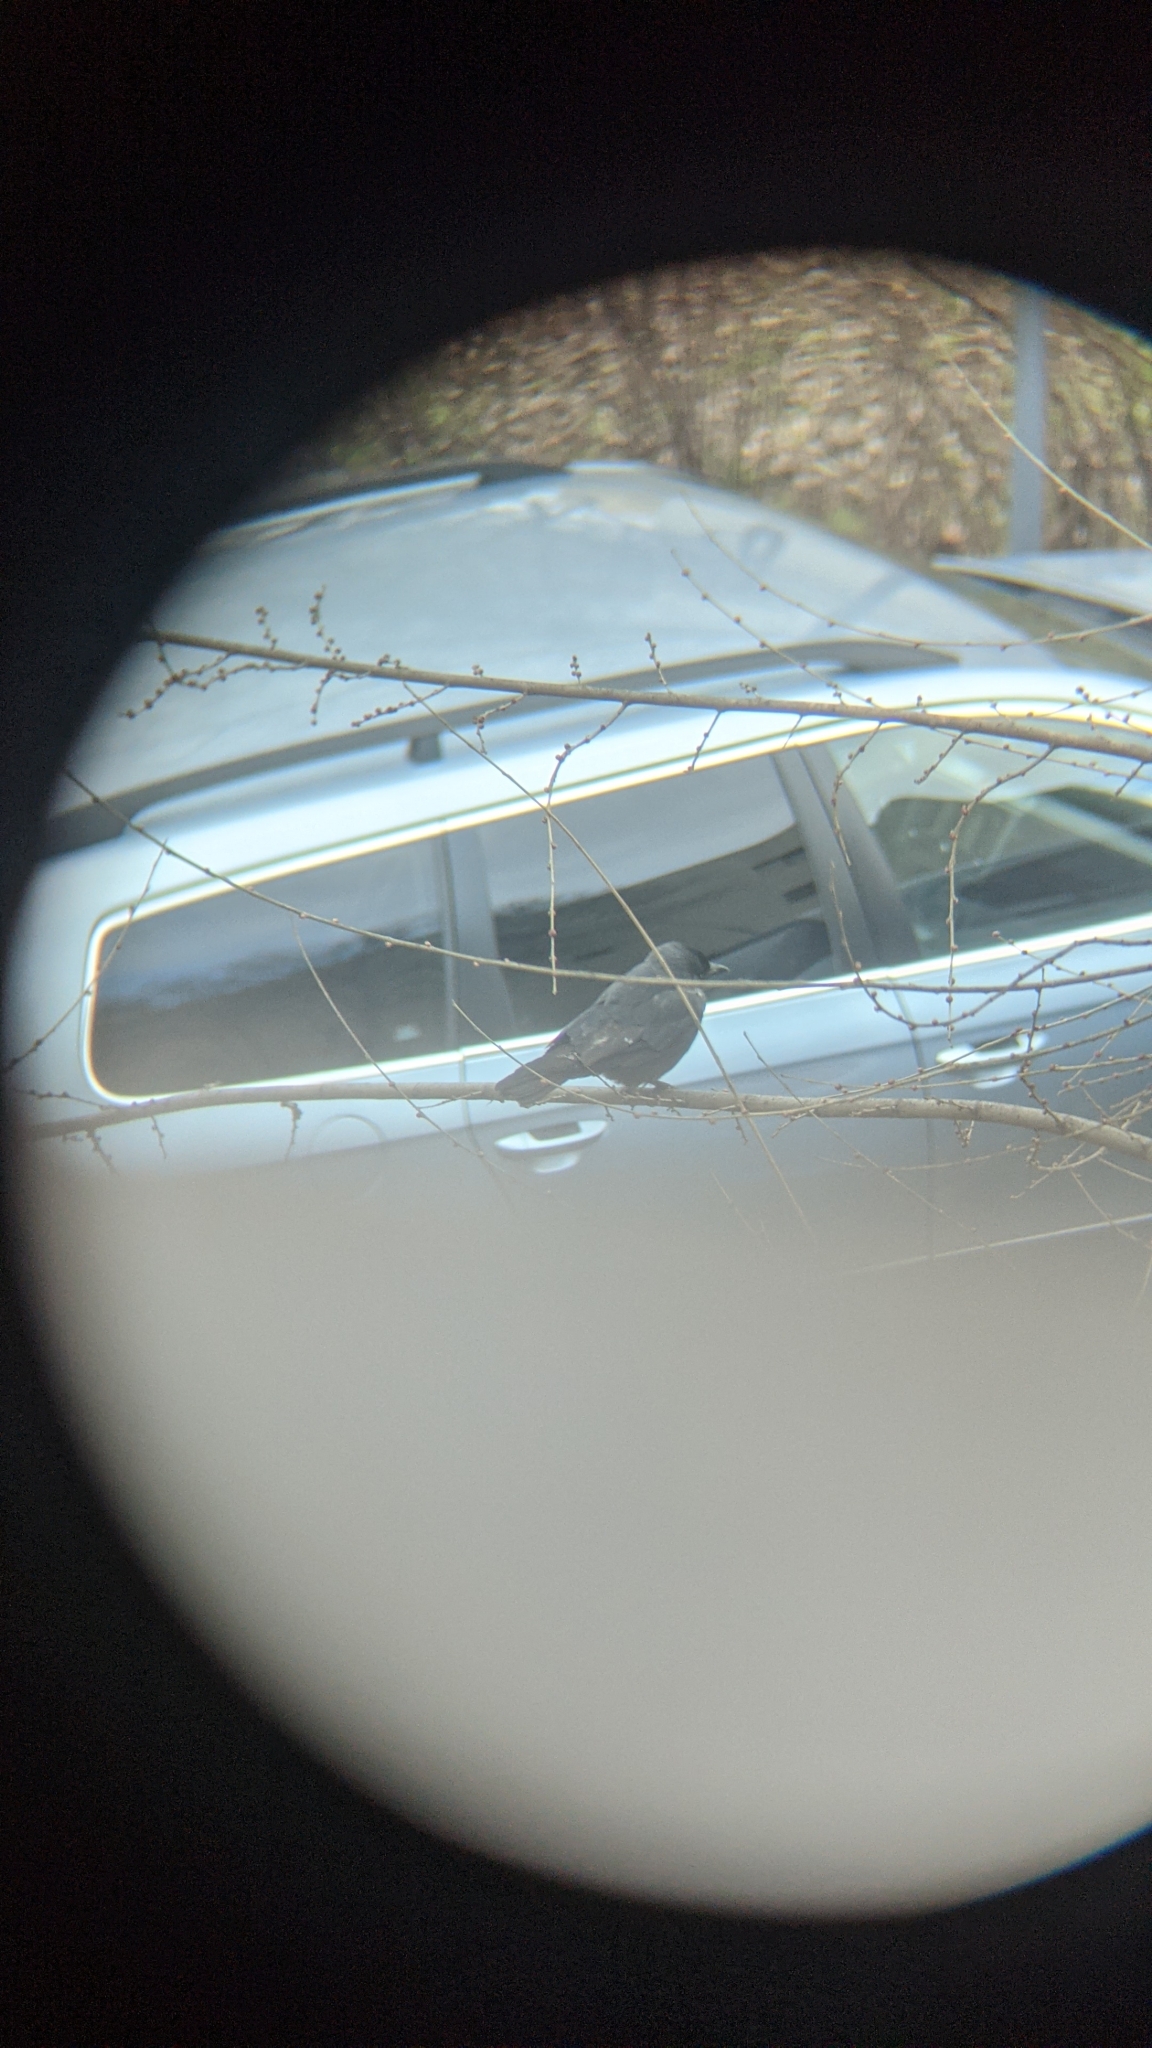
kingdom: Animalia
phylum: Chordata
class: Aves
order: Passeriformes
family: Corvidae
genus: Coloeus
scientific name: Coloeus monedula
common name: Western jackdaw
